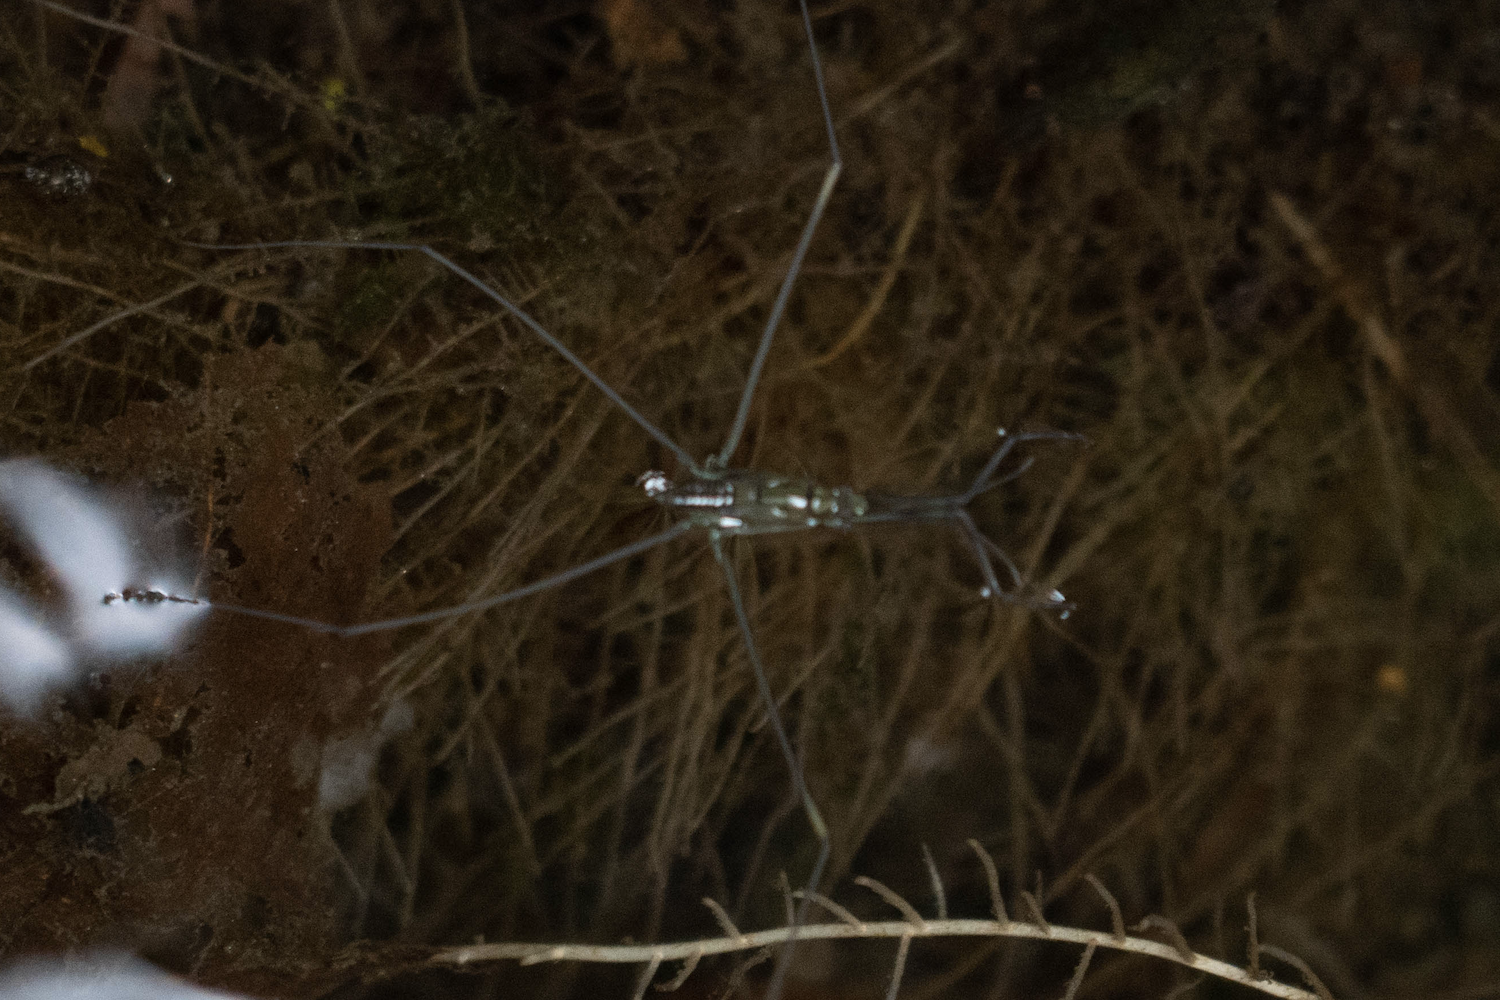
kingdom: Animalia
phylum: Arthropoda
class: Insecta
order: Hemiptera
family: Gerridae
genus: Ptilomera
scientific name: Ptilomera tigrina
